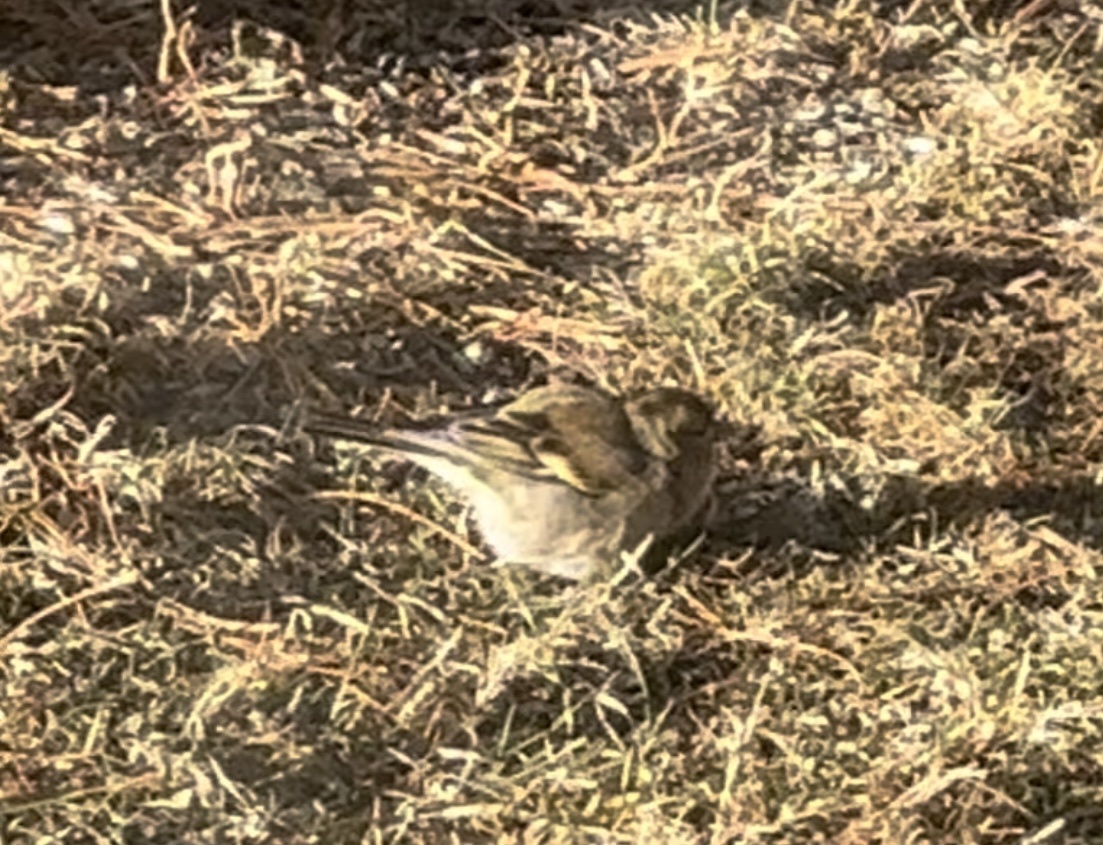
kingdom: Animalia
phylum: Chordata
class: Aves
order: Passeriformes
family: Fringillidae
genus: Fringilla
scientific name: Fringilla coelebs
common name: Common chaffinch
